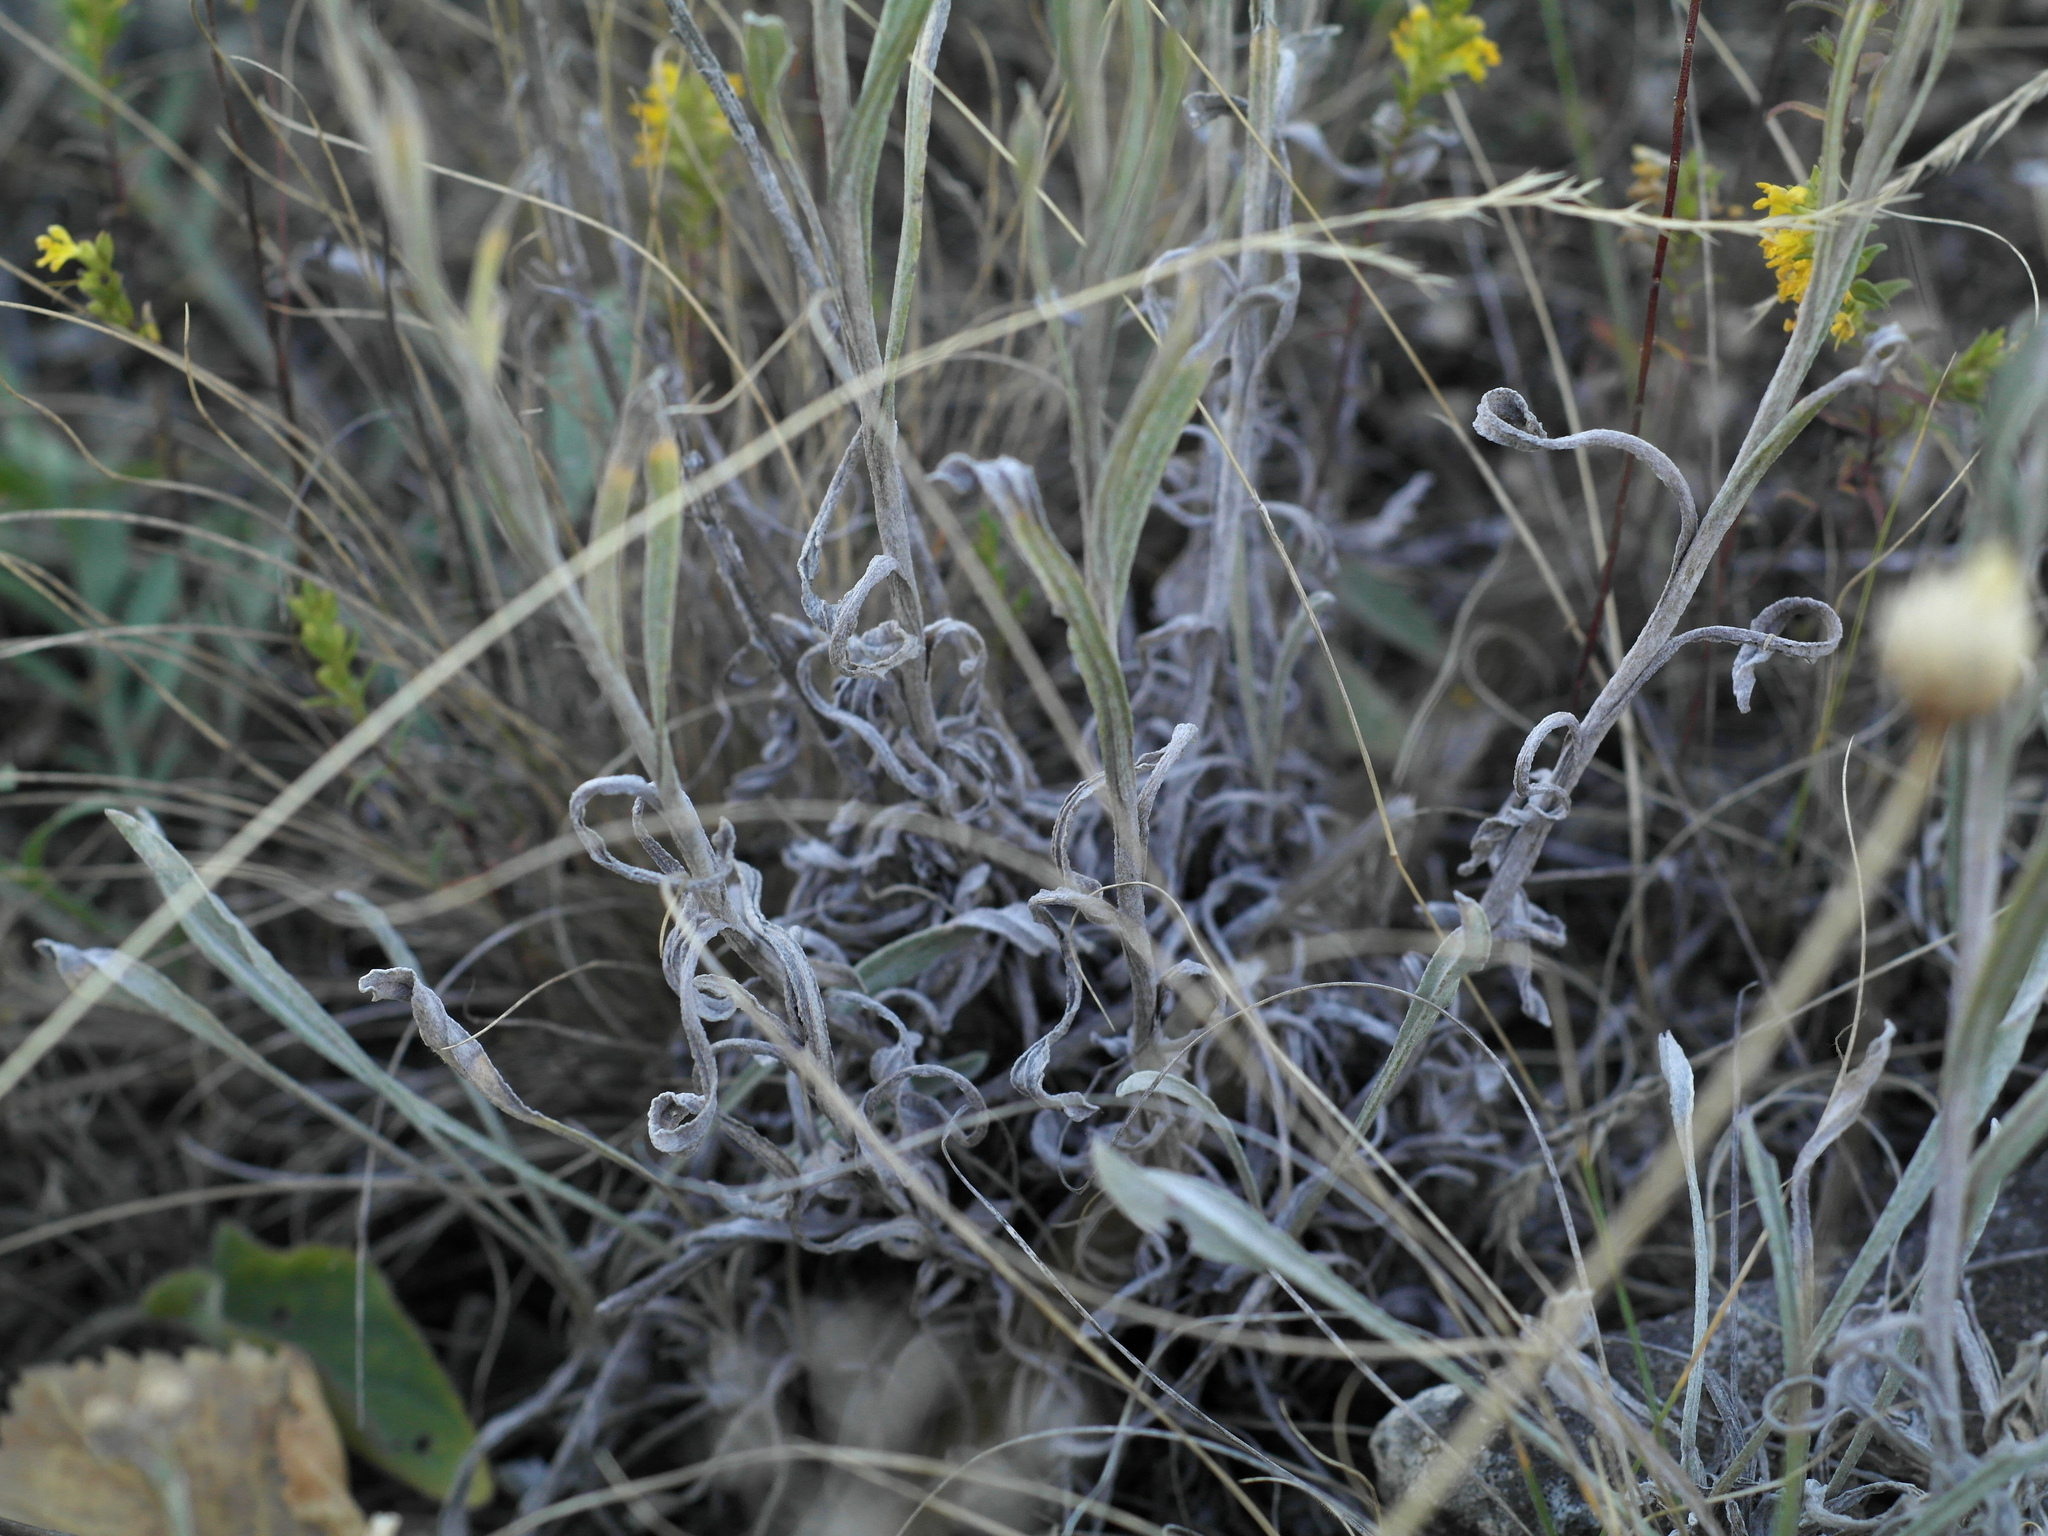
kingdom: Plantae
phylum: Tracheophyta
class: Magnoliopsida
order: Asterales
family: Asteraceae
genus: Helichrysum
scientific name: Helichrysum arenarium
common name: Strawflower
